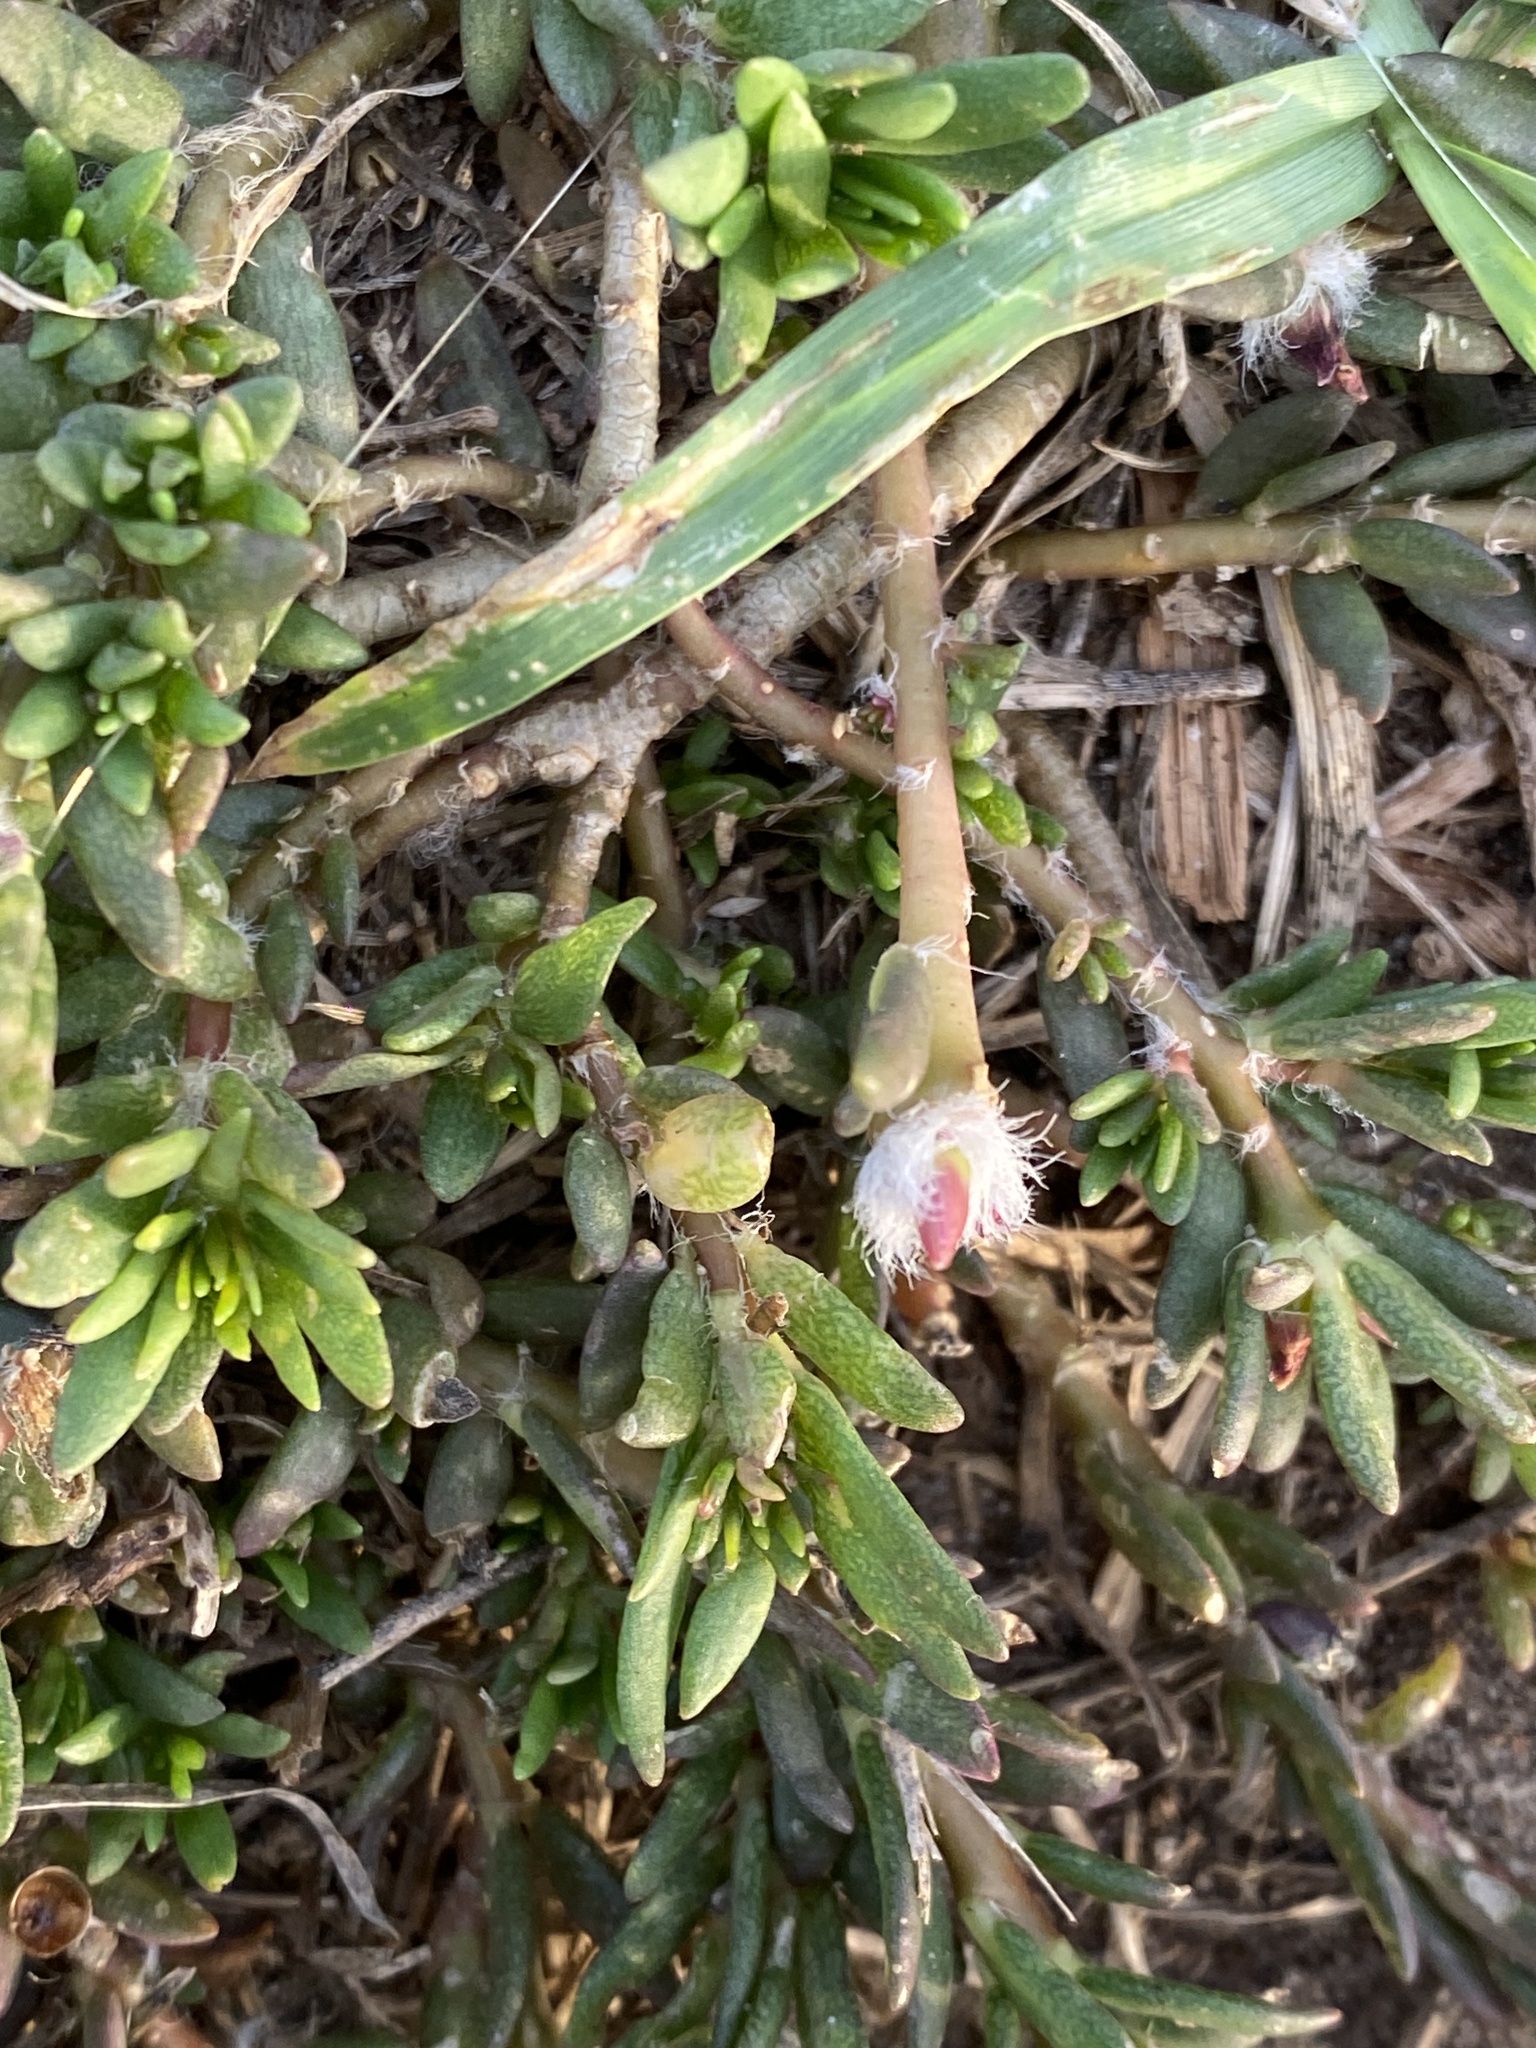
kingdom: Plantae
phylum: Tracheophyta
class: Magnoliopsida
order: Caryophyllales
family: Portulacaceae
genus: Portulaca
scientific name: Portulaca pilosa
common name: Kiss me quick
